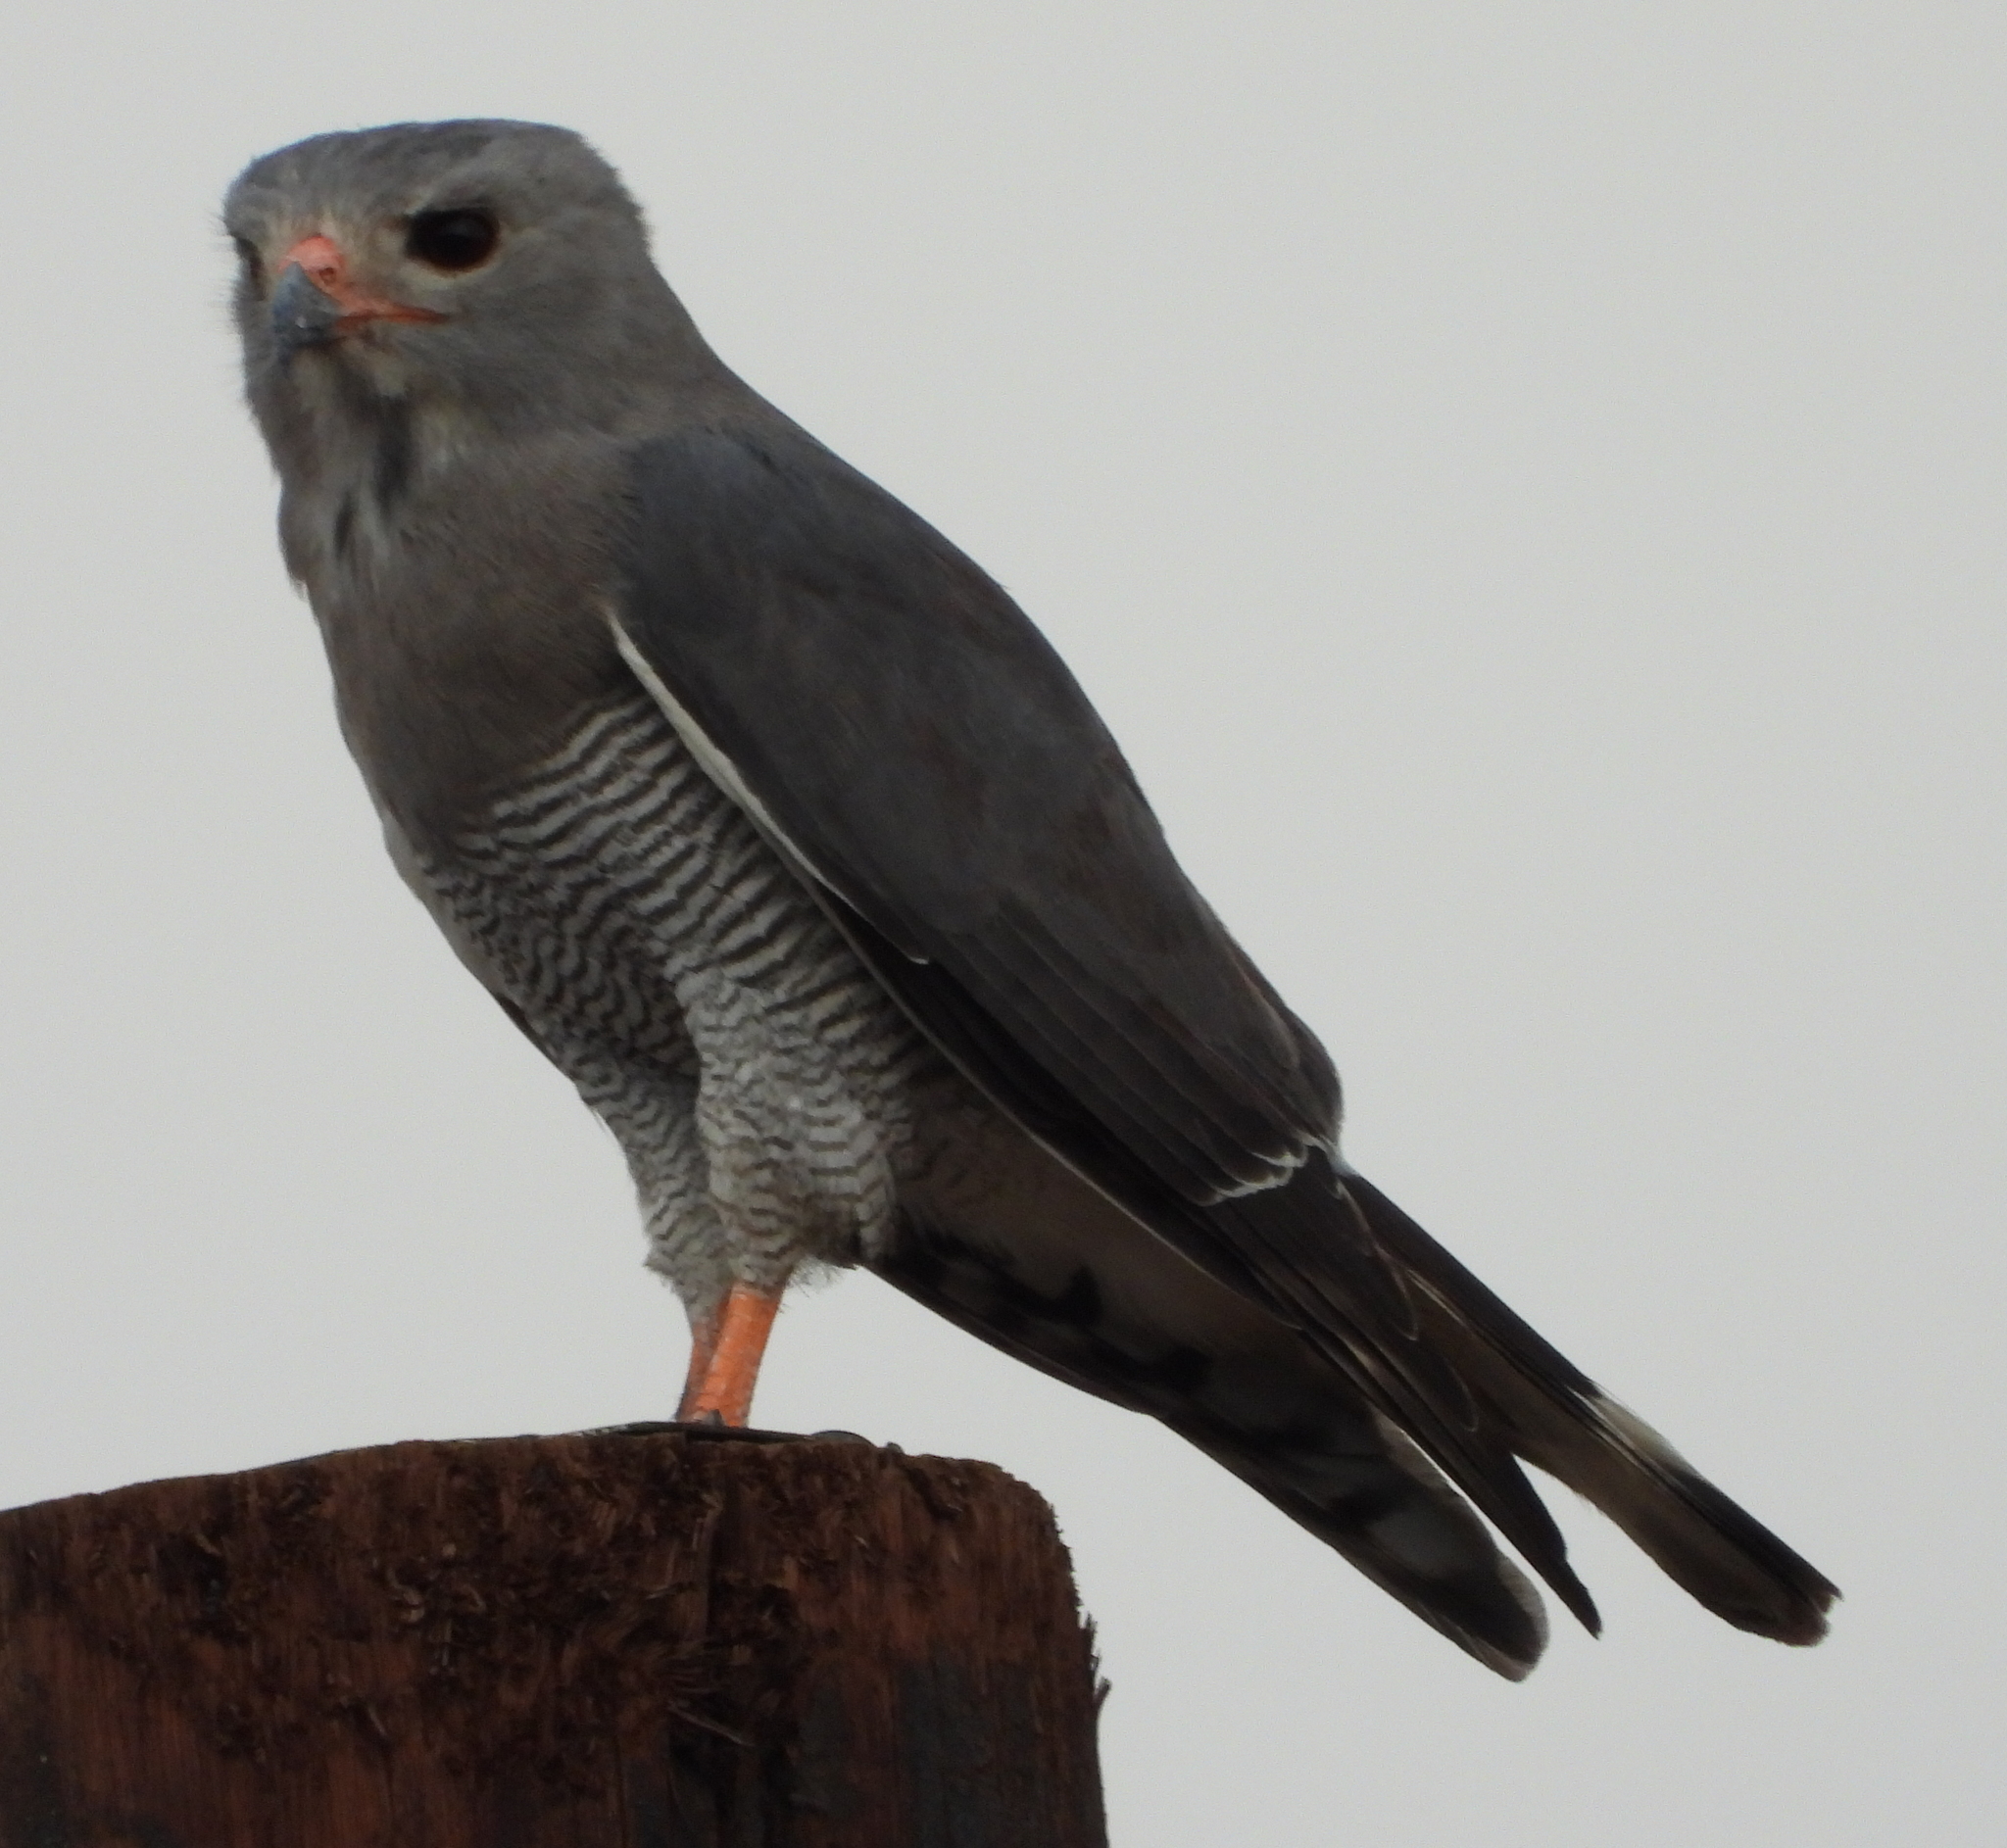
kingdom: Animalia
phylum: Chordata
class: Aves
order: Accipitriformes
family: Accipitridae
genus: Kaupifalco
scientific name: Kaupifalco monogrammicus
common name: Lizard buzzard
